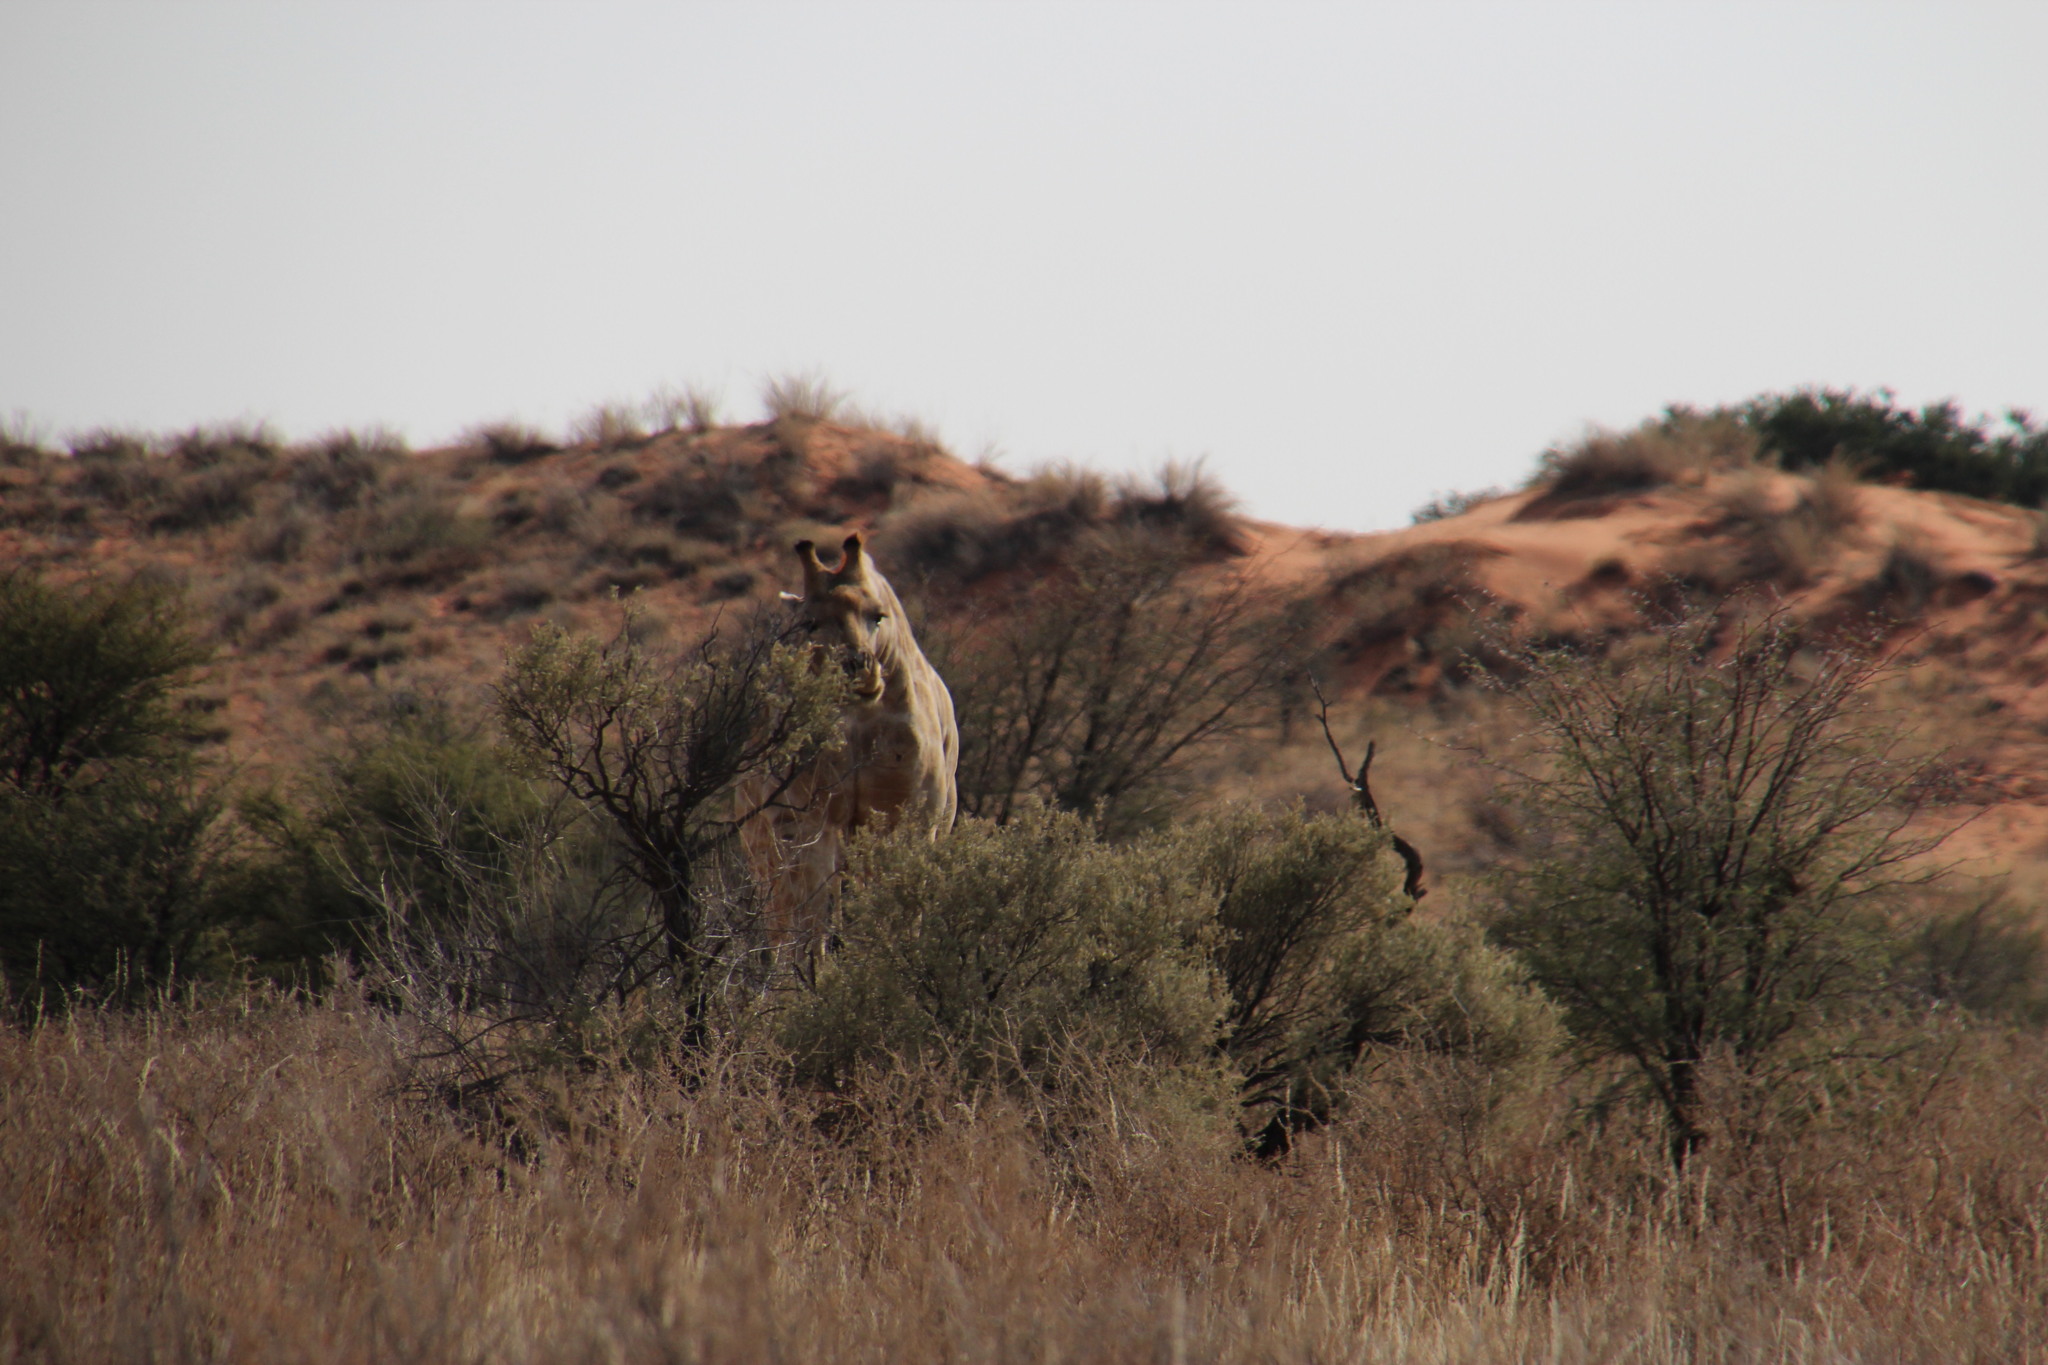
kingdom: Animalia
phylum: Chordata
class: Mammalia
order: Artiodactyla
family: Giraffidae
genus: Giraffa
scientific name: Giraffa giraffa
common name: Southern giraffe
